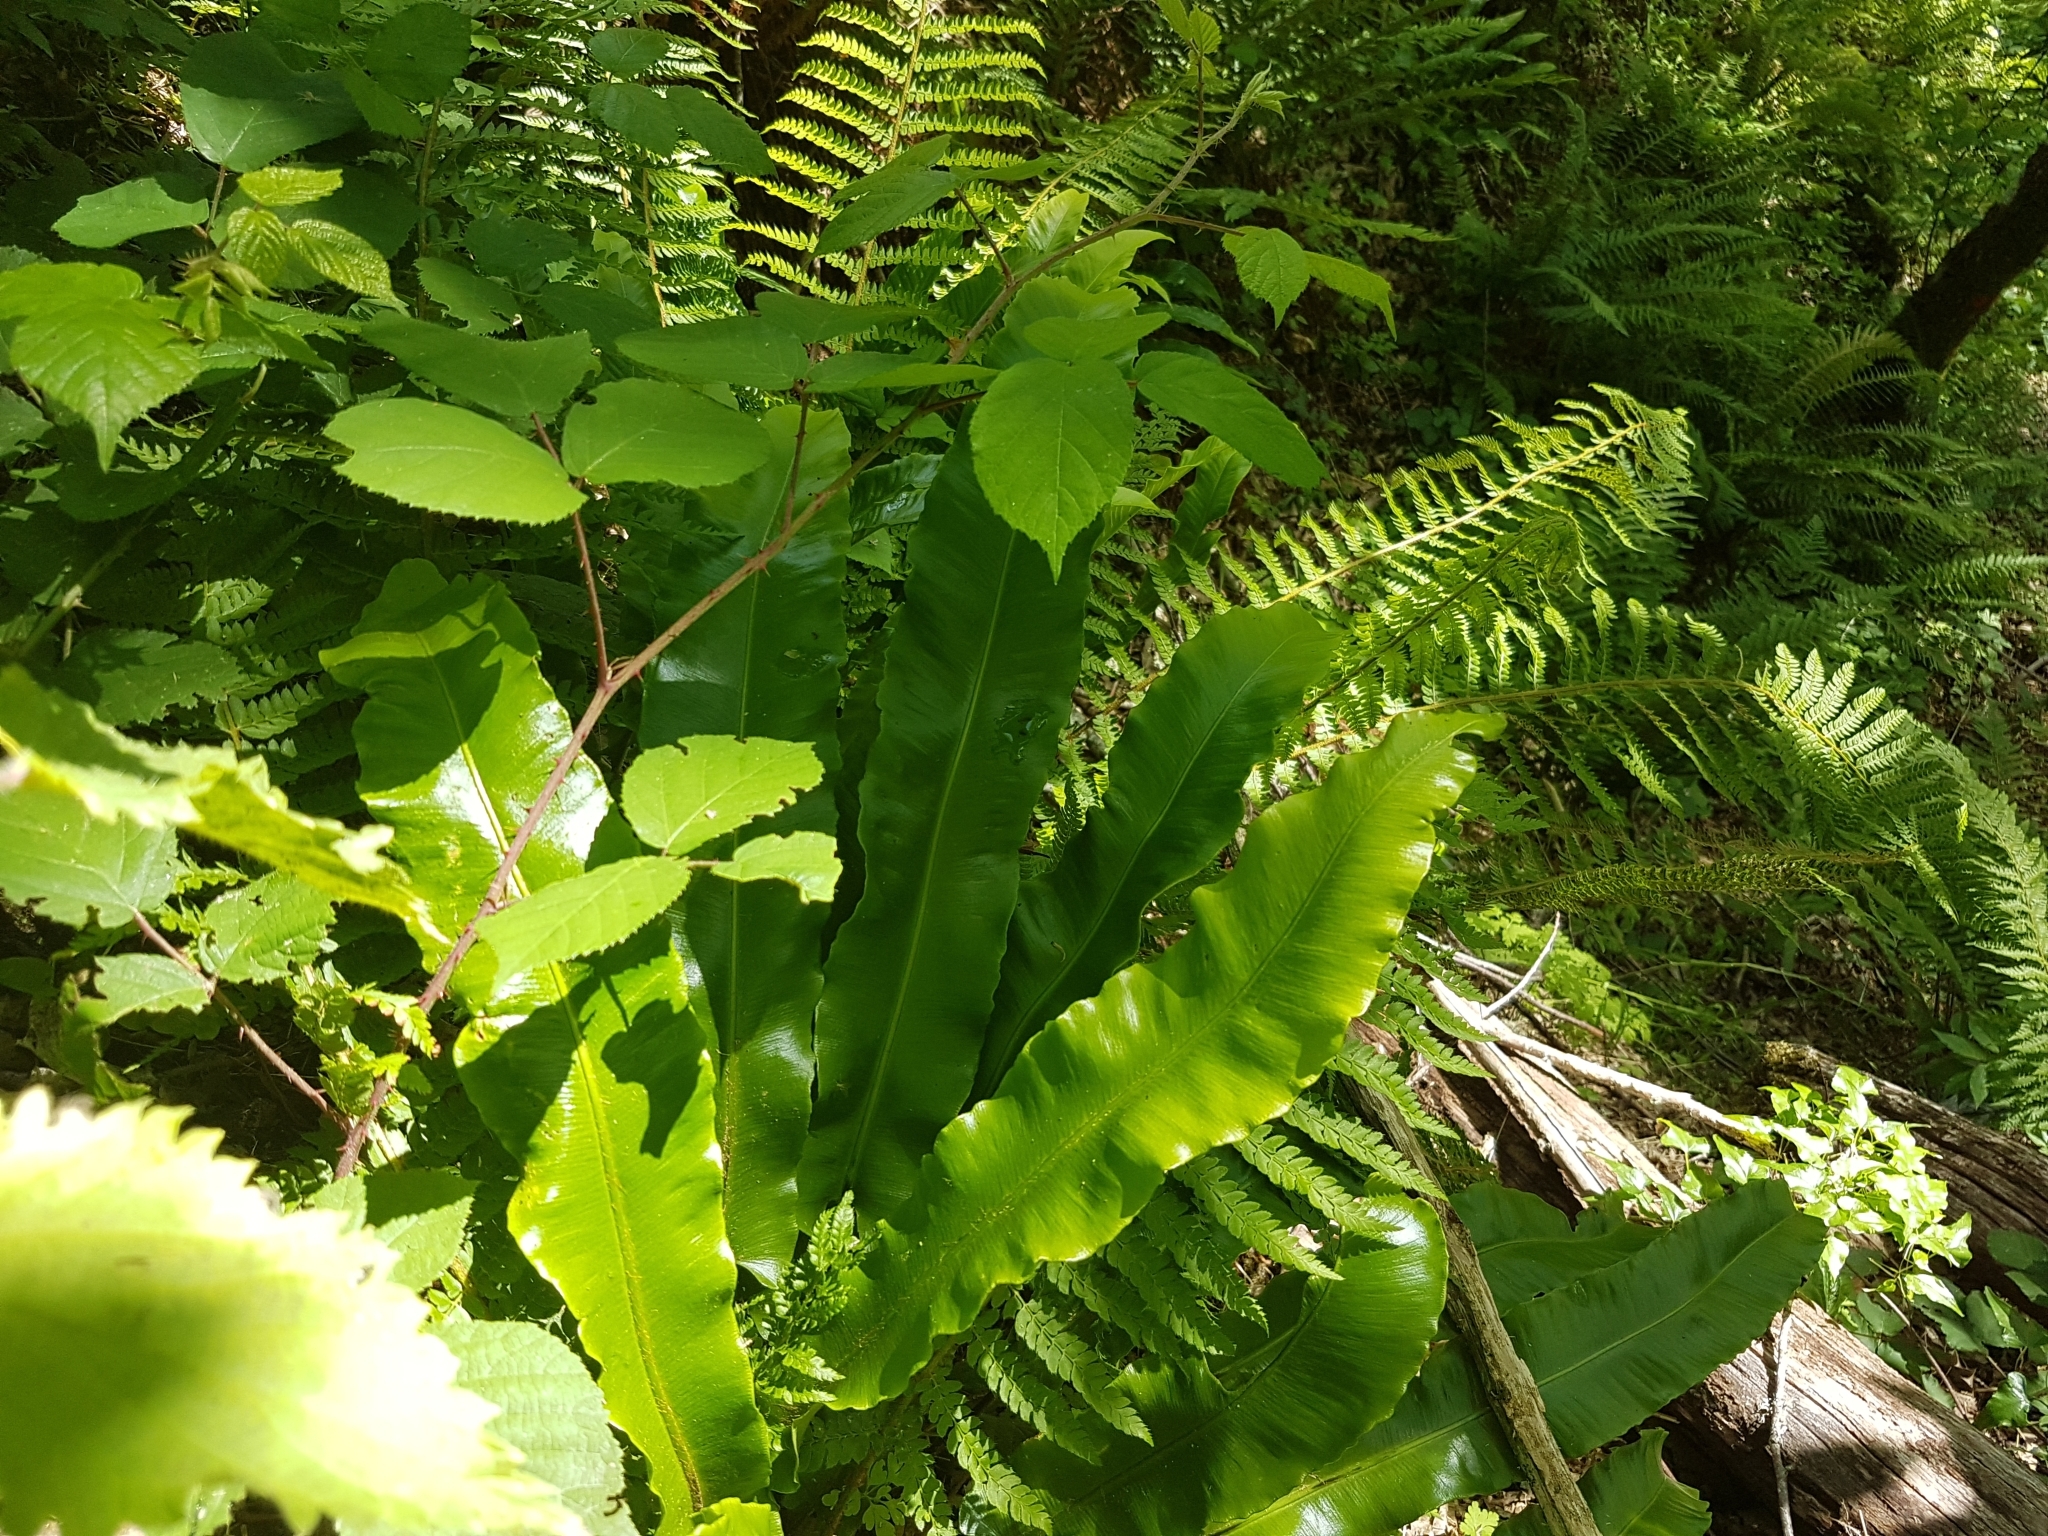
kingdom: Plantae
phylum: Tracheophyta
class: Polypodiopsida
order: Polypodiales
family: Aspleniaceae
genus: Asplenium
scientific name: Asplenium scolopendrium
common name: Hart's-tongue fern
